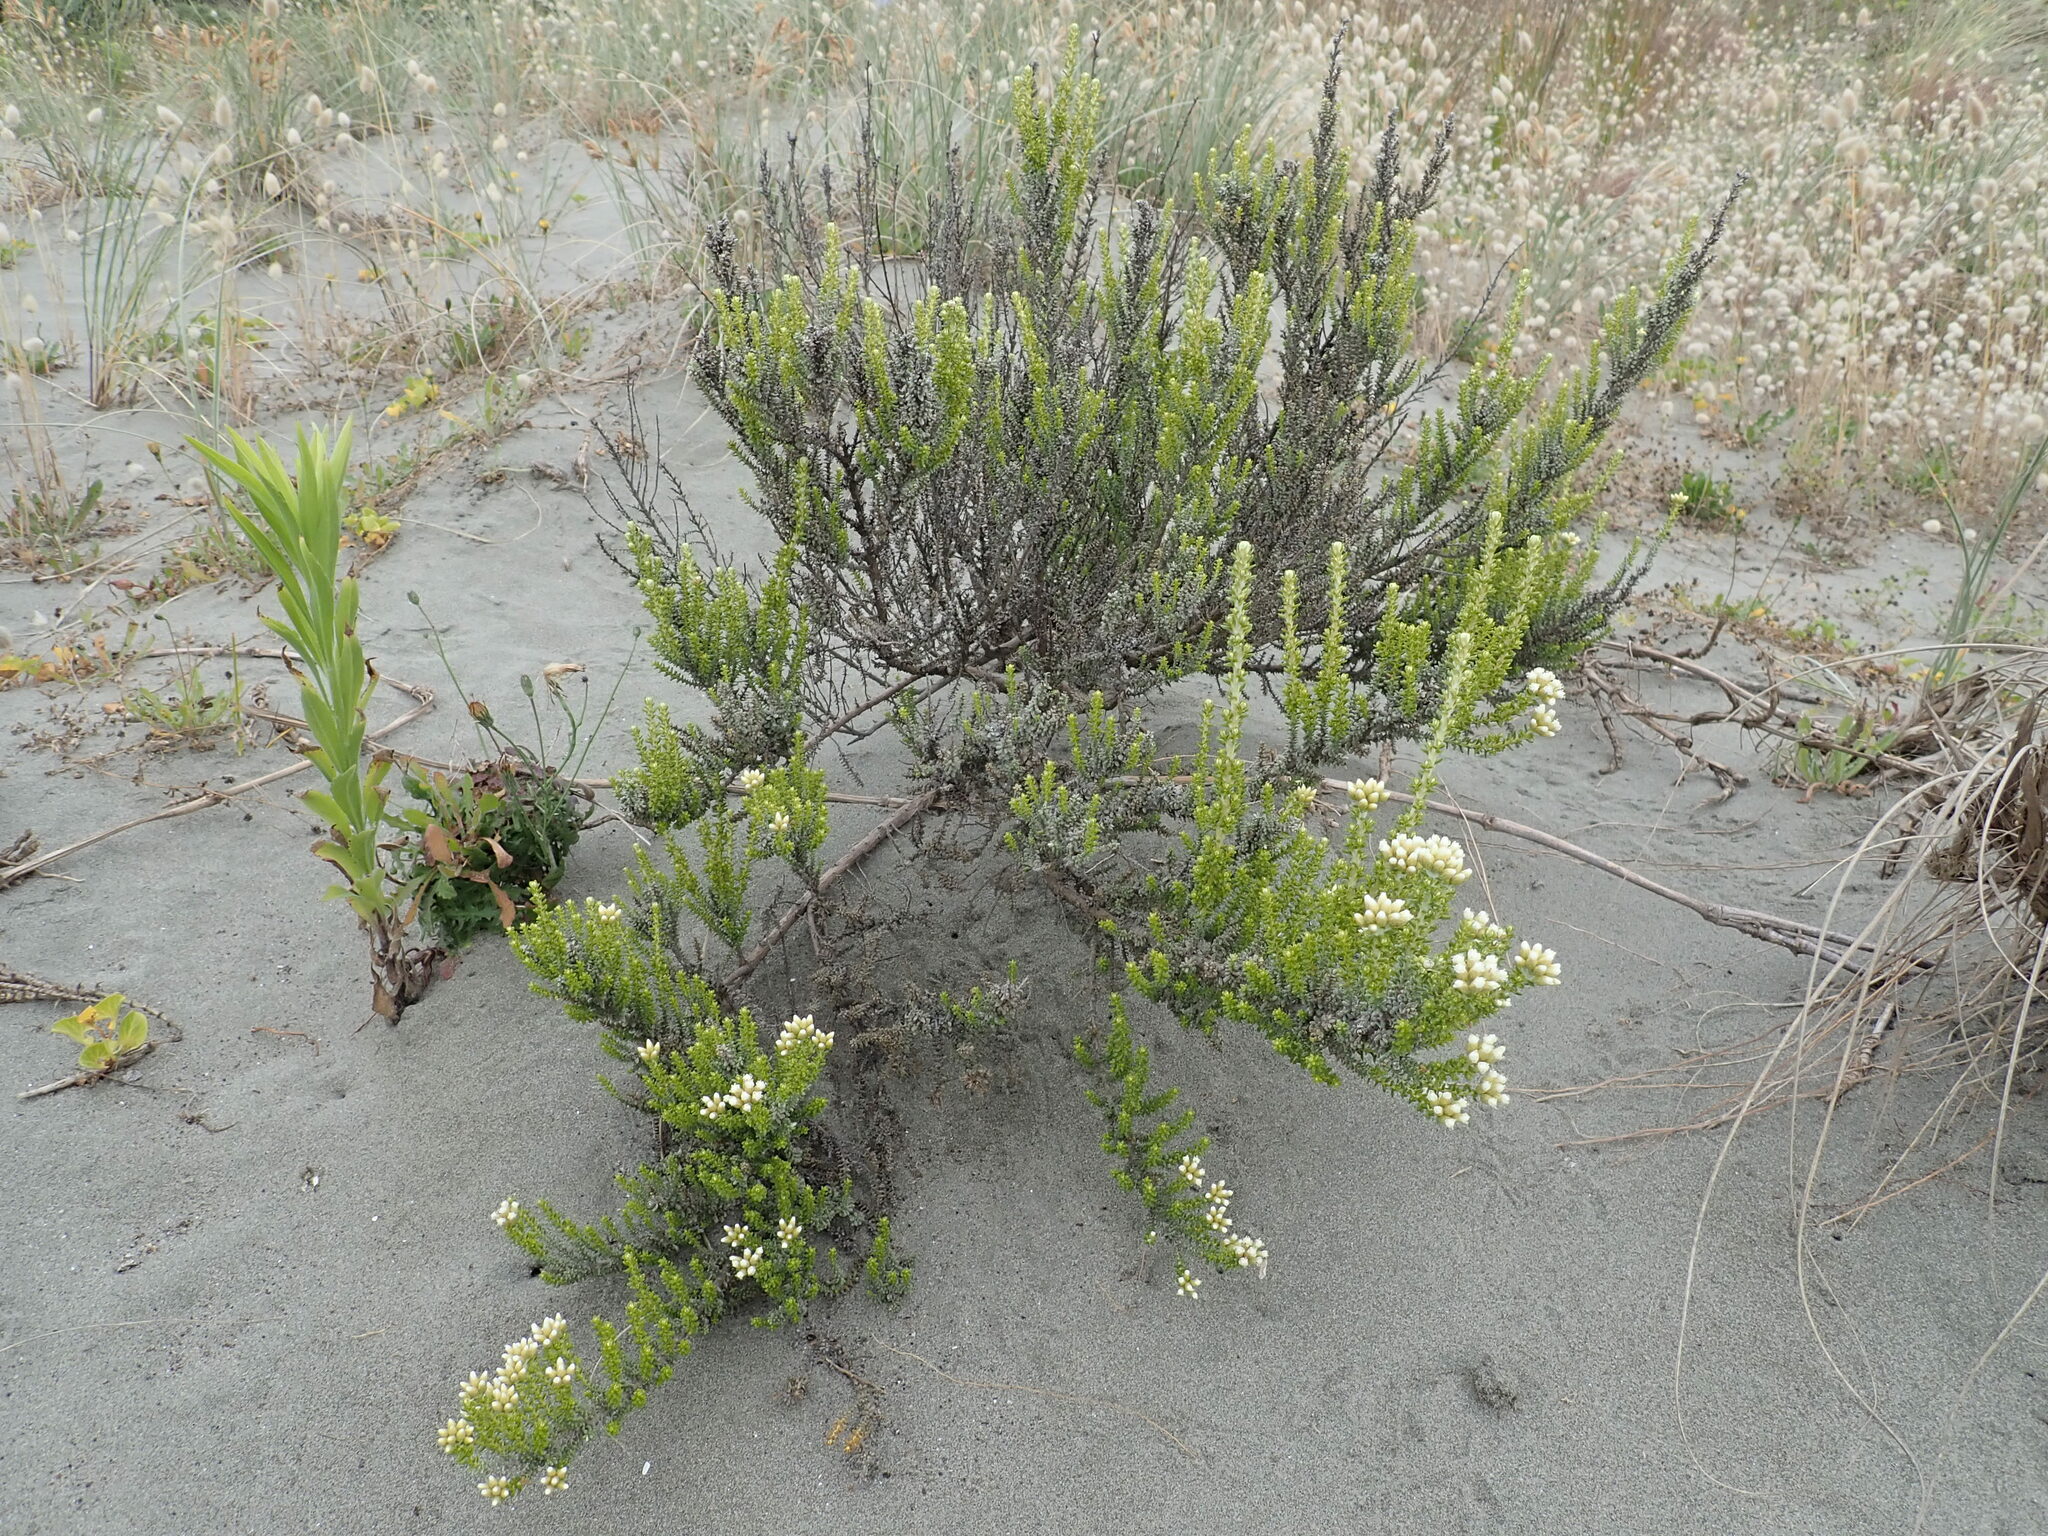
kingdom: Plantae
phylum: Tracheophyta
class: Magnoliopsida
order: Asterales
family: Asteraceae
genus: Ozothamnus
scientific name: Ozothamnus leptophyllus
